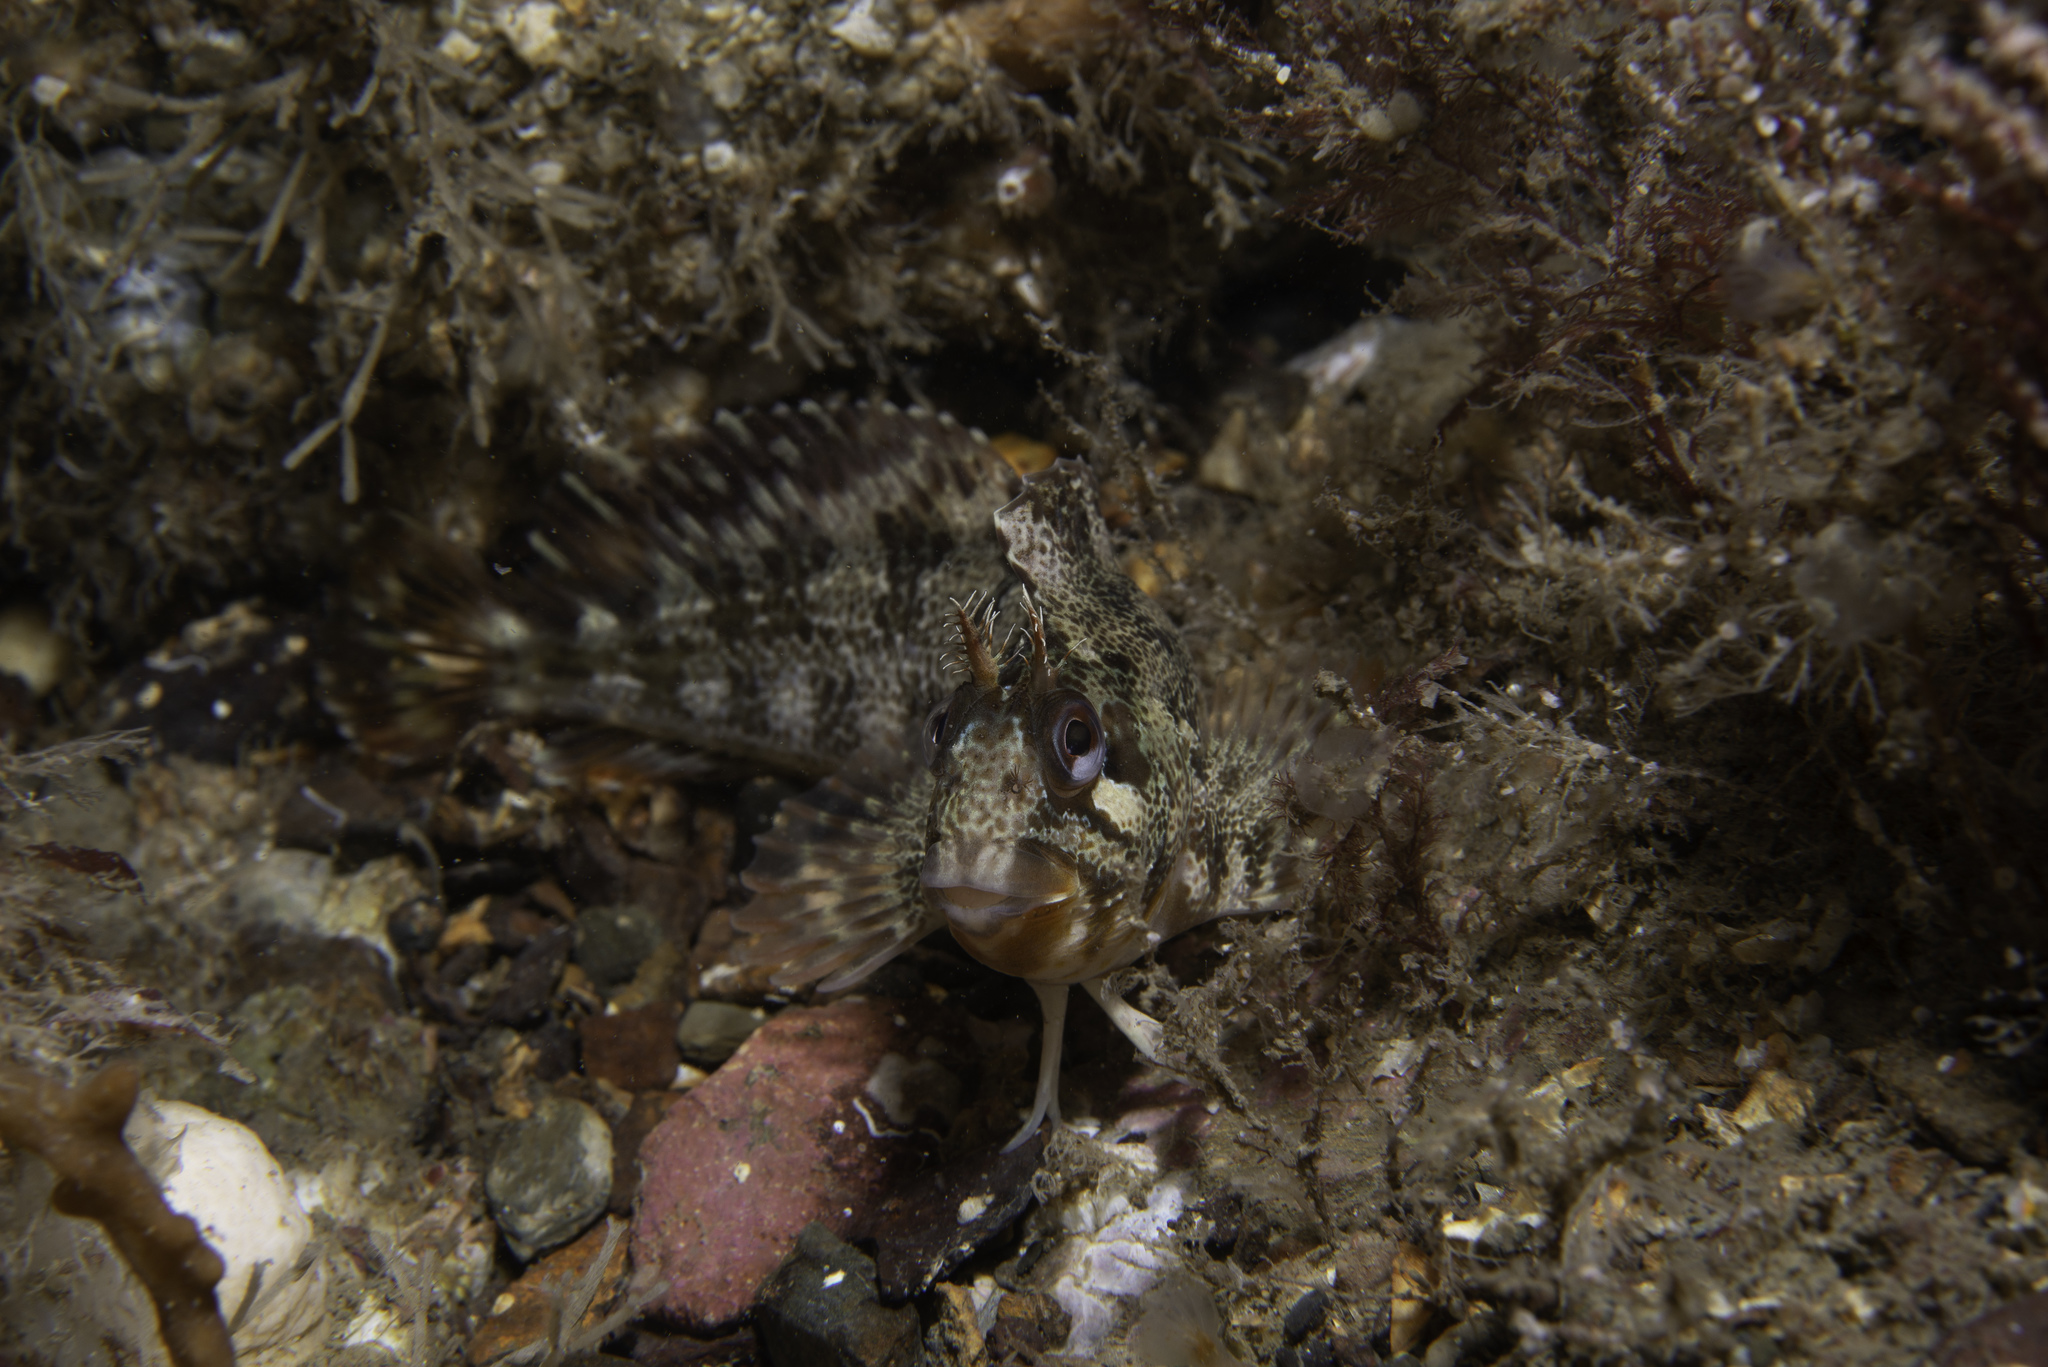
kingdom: Animalia
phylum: Chordata
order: Perciformes
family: Blenniidae
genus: Parablennius
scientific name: Parablennius gattorugine
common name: Tompot blenny
